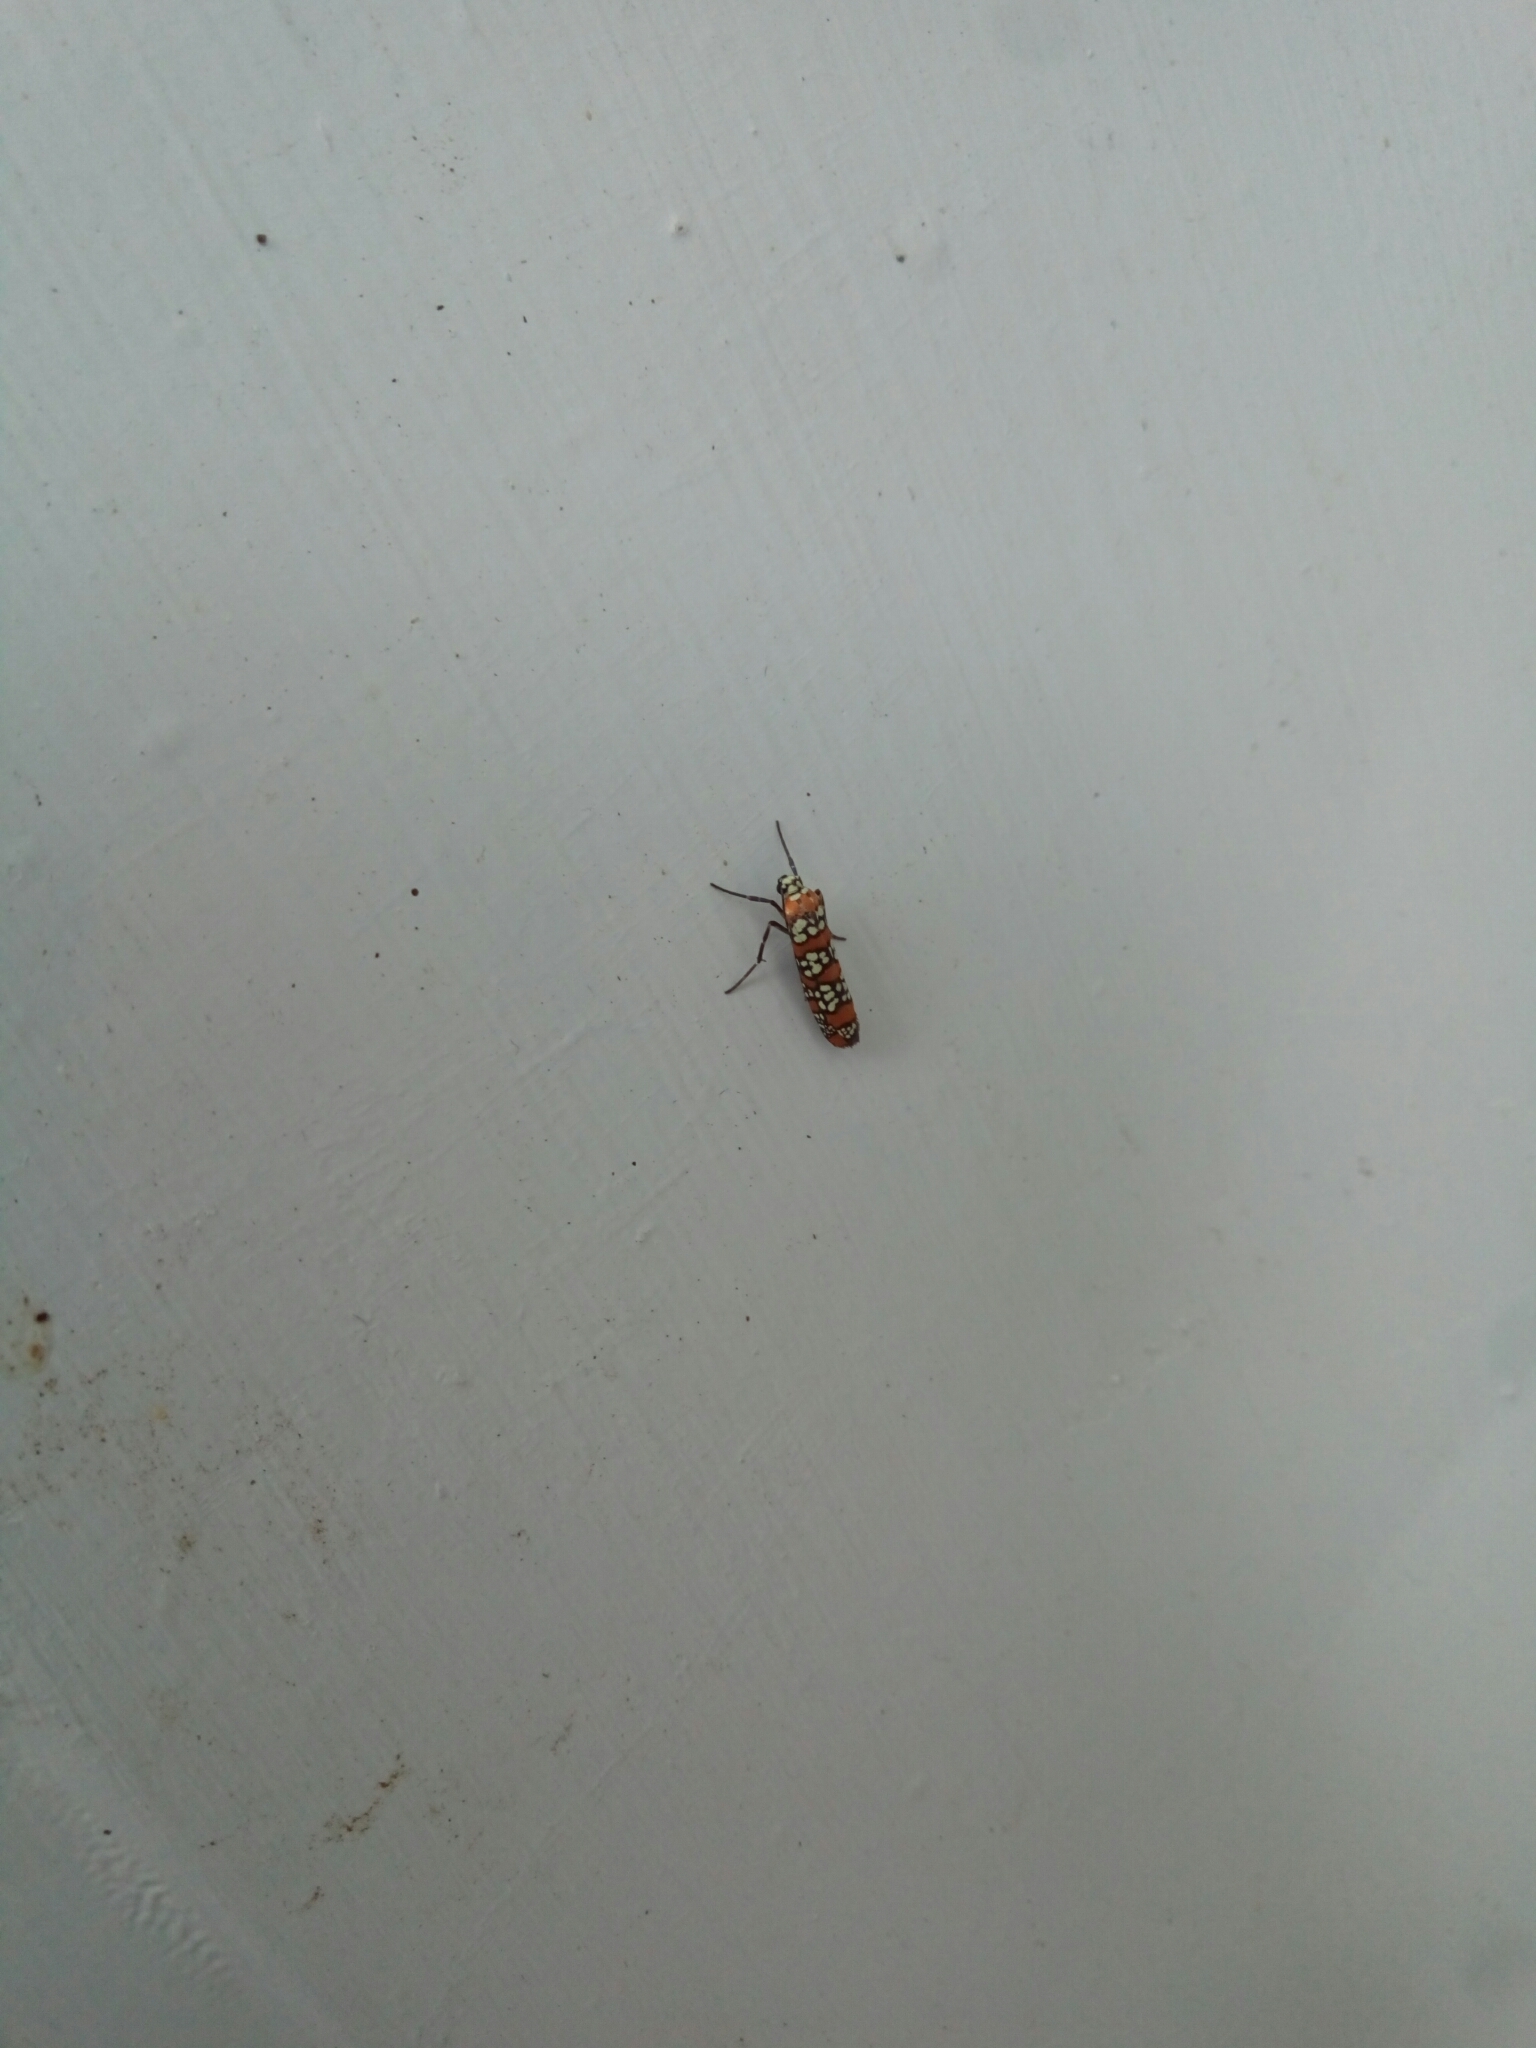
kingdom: Animalia
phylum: Arthropoda
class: Insecta
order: Lepidoptera
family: Attevidae
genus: Atteva
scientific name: Atteva punctella
